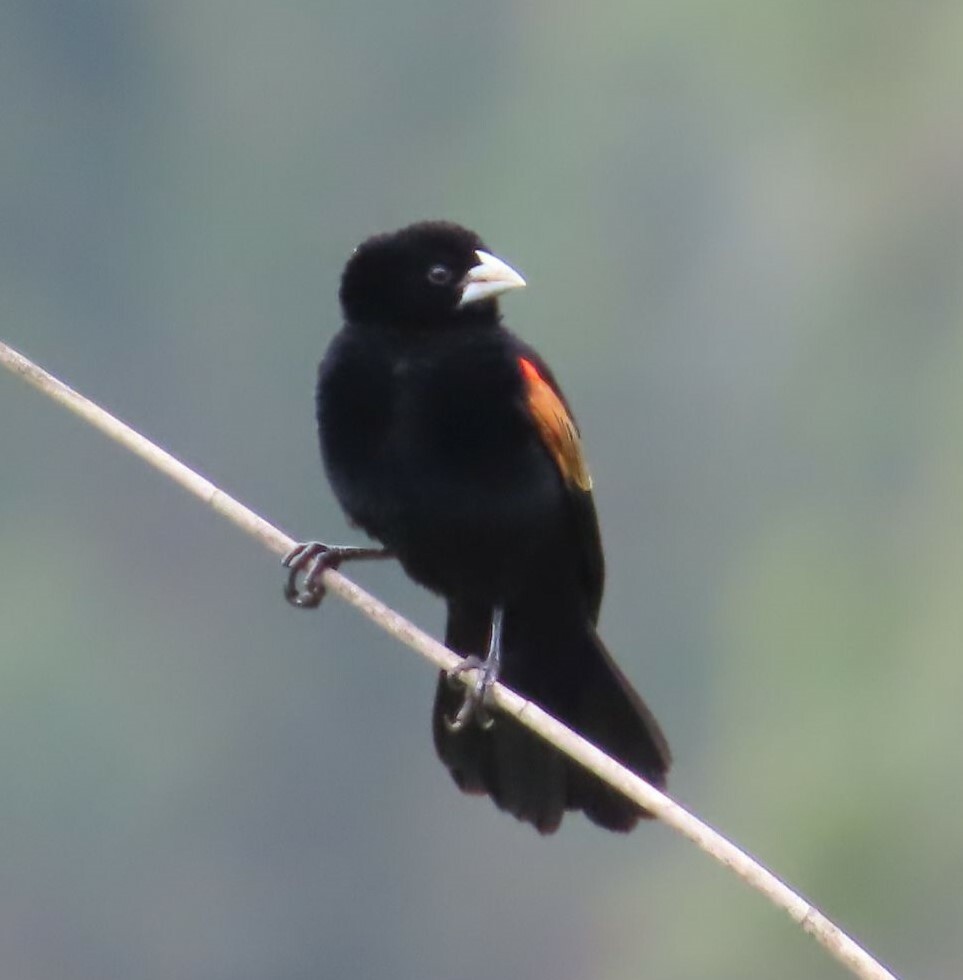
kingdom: Animalia
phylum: Chordata
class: Aves
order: Passeriformes
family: Ploceidae
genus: Euplectes
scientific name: Euplectes axillaris
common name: Fan-tailed widowbird
